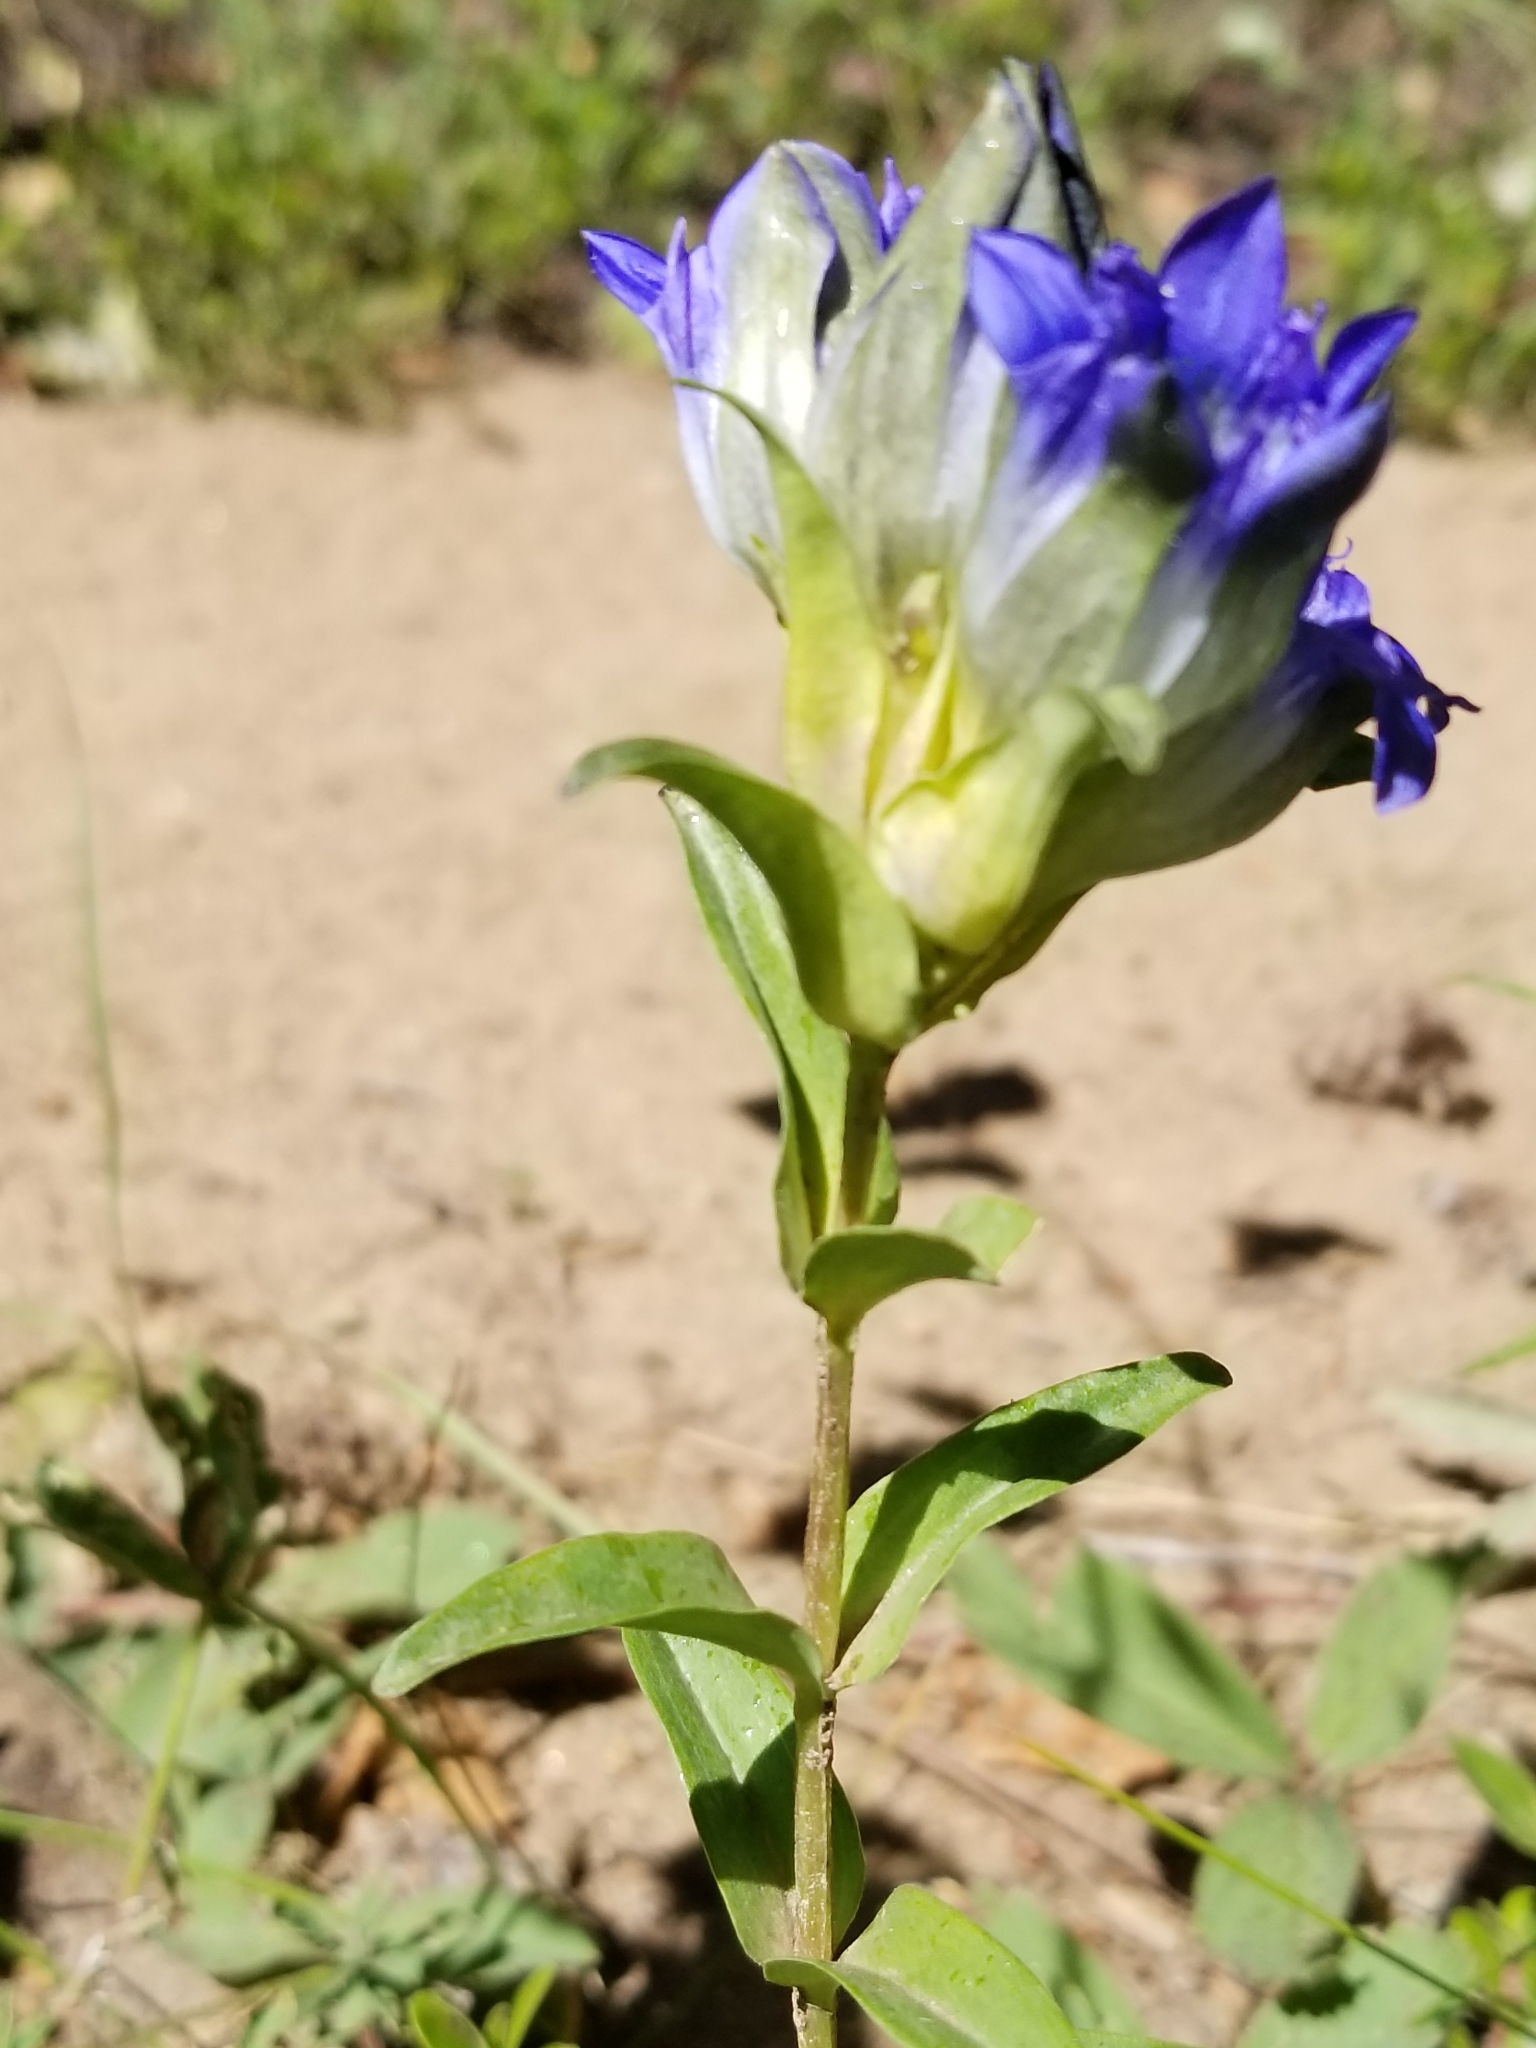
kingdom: Plantae
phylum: Tracheophyta
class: Magnoliopsida
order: Gentianales
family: Gentianaceae
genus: Gentiana
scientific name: Gentiana parryi
